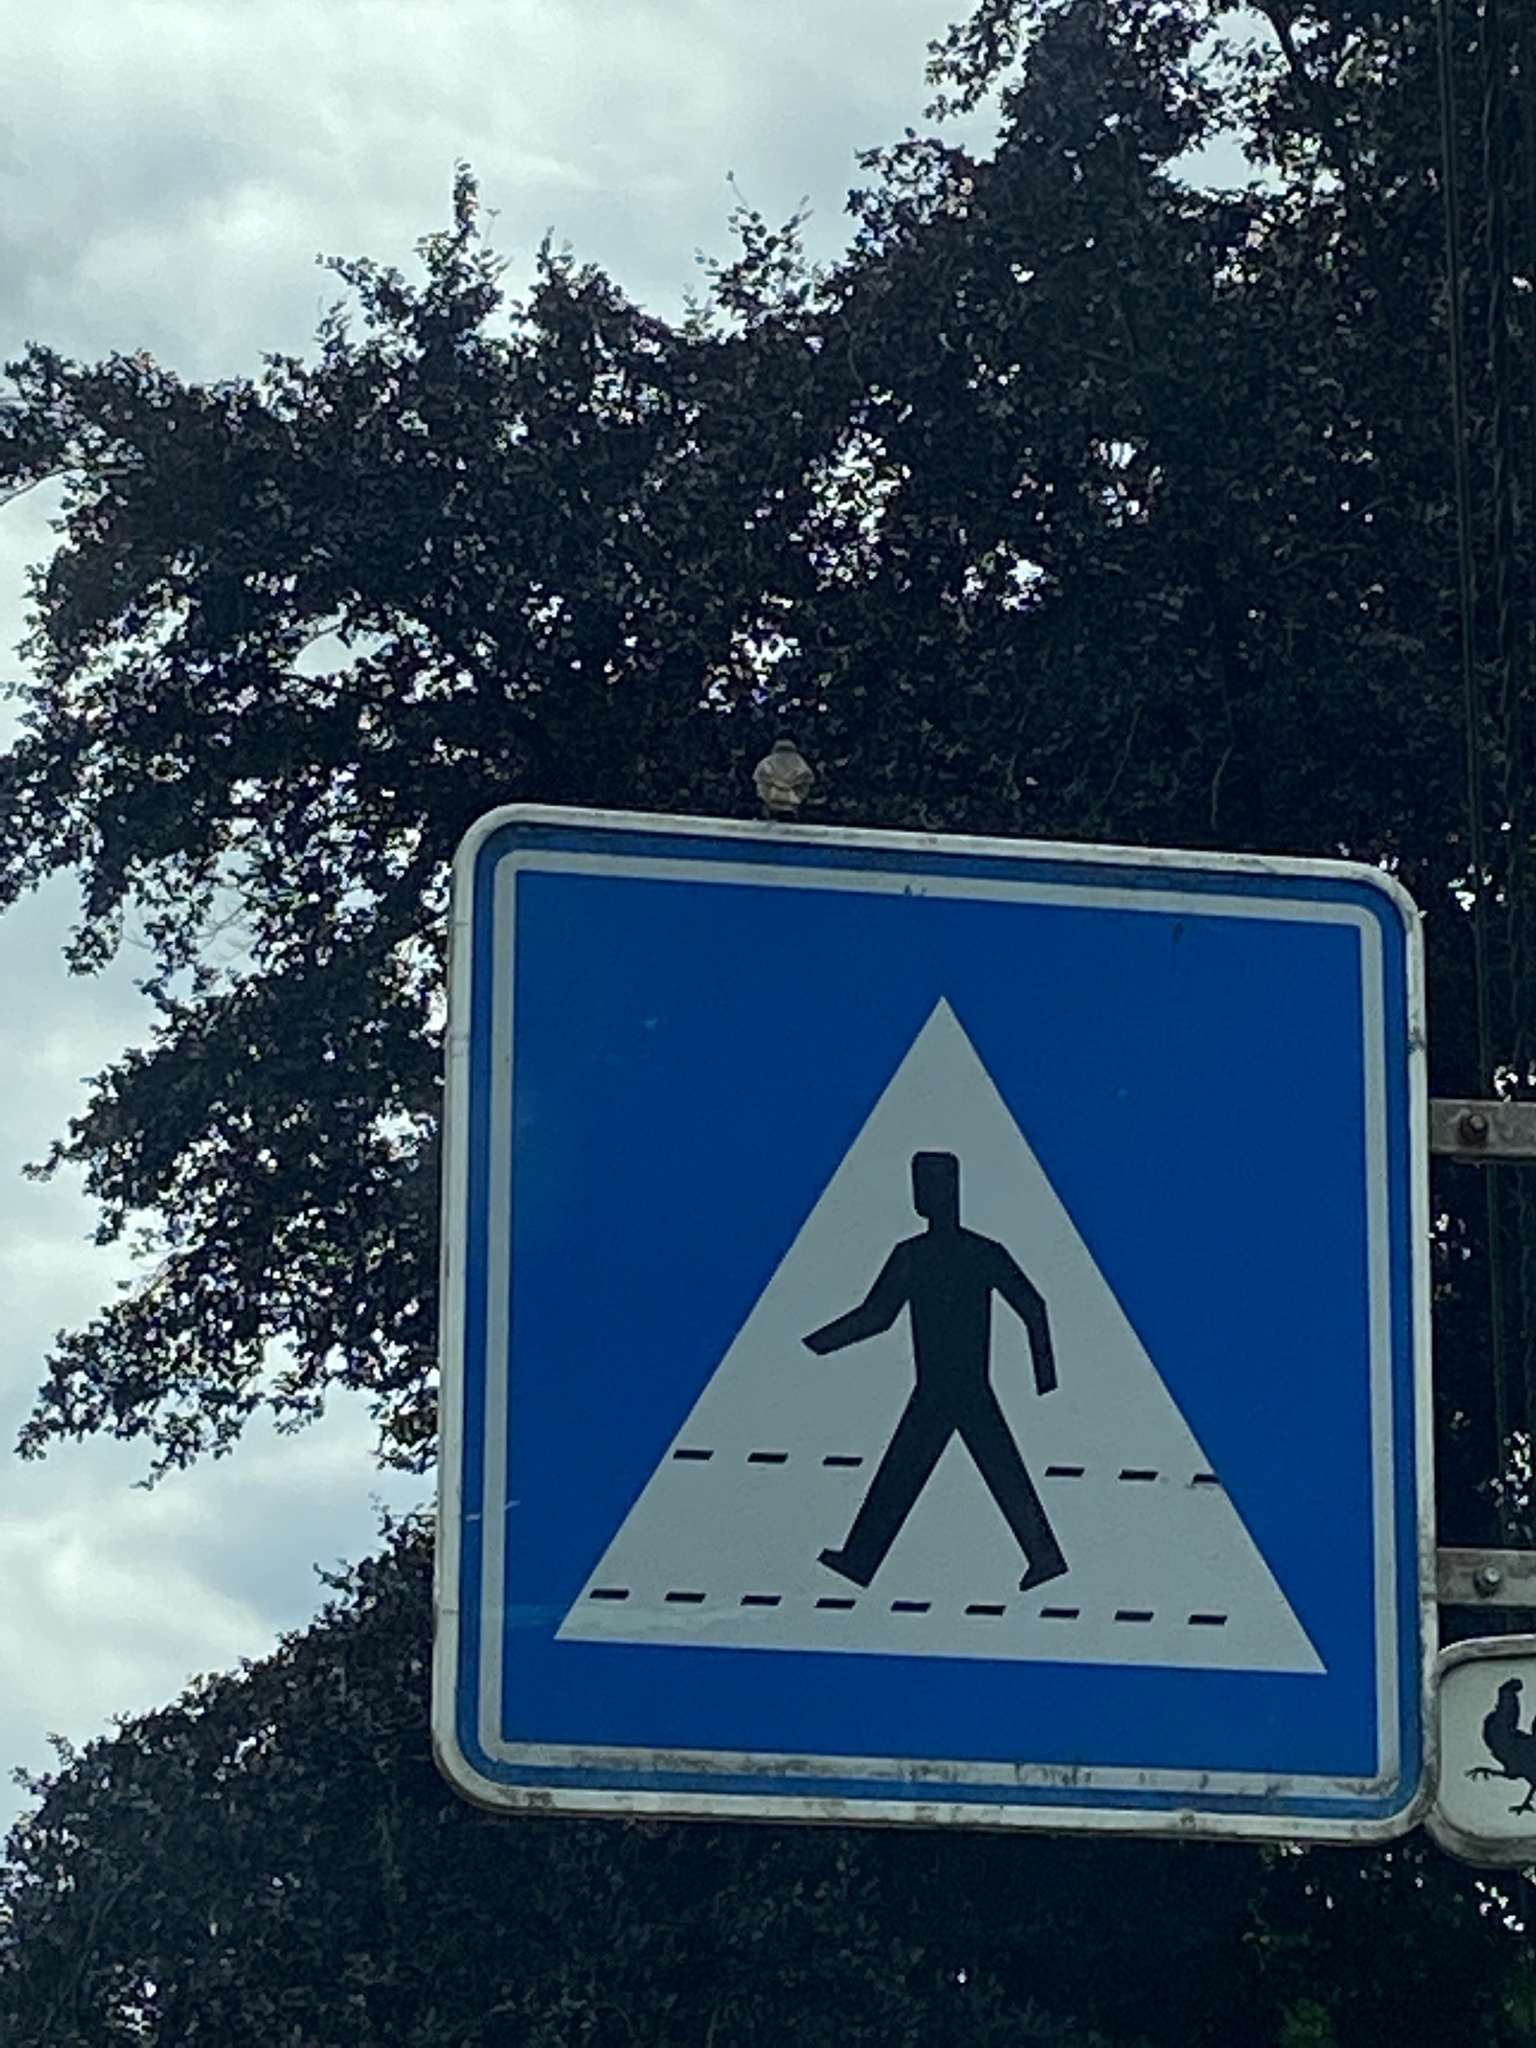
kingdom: Animalia
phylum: Chordata
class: Aves
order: Passeriformes
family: Muscicapidae
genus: Phoenicurus
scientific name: Phoenicurus ochruros
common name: Black redstart
